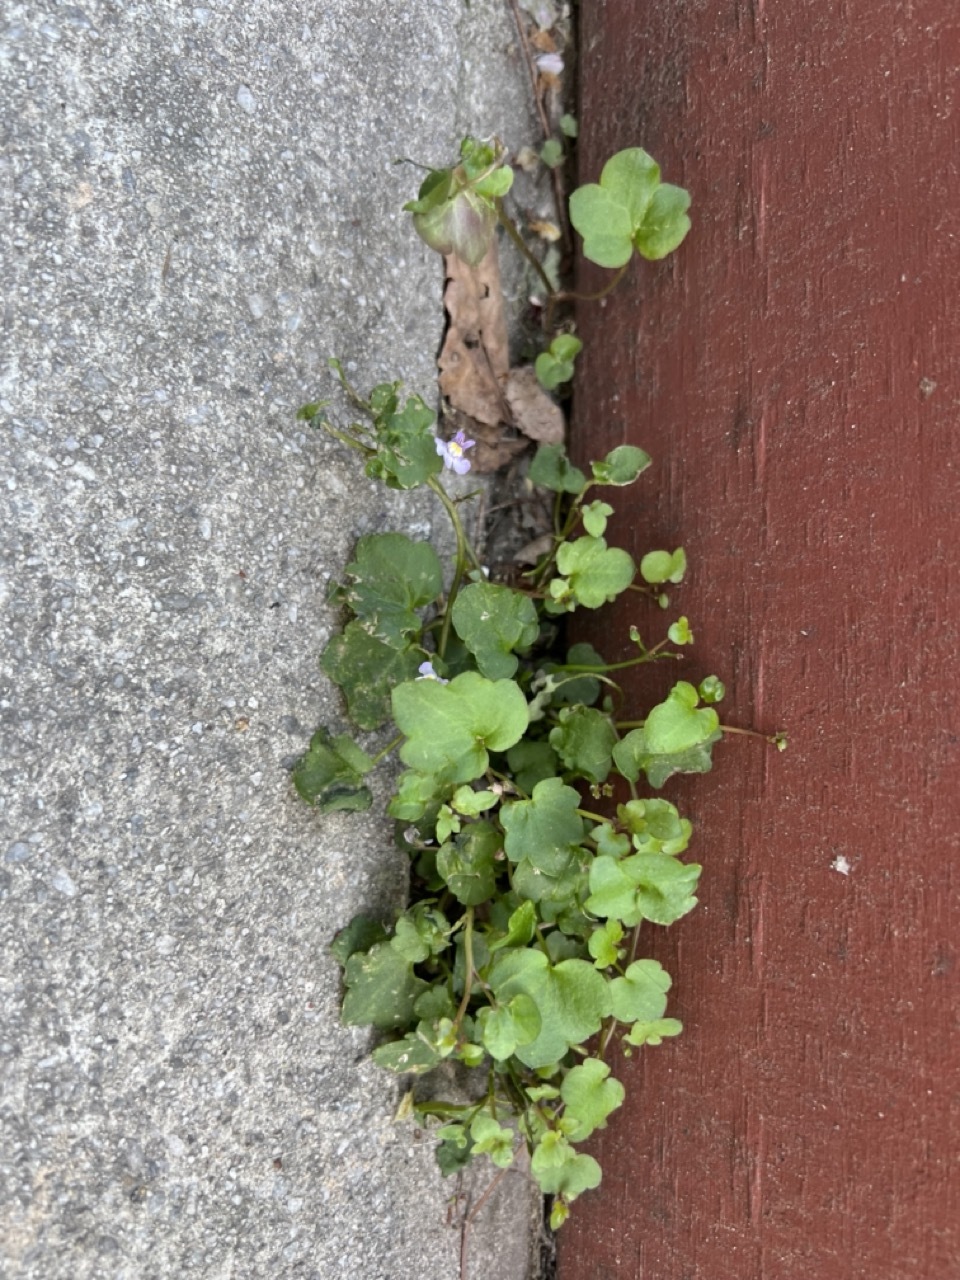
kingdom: Plantae
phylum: Tracheophyta
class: Magnoliopsida
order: Lamiales
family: Plantaginaceae
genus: Cymbalaria
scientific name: Cymbalaria muralis
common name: Ivy-leaved toadflax
